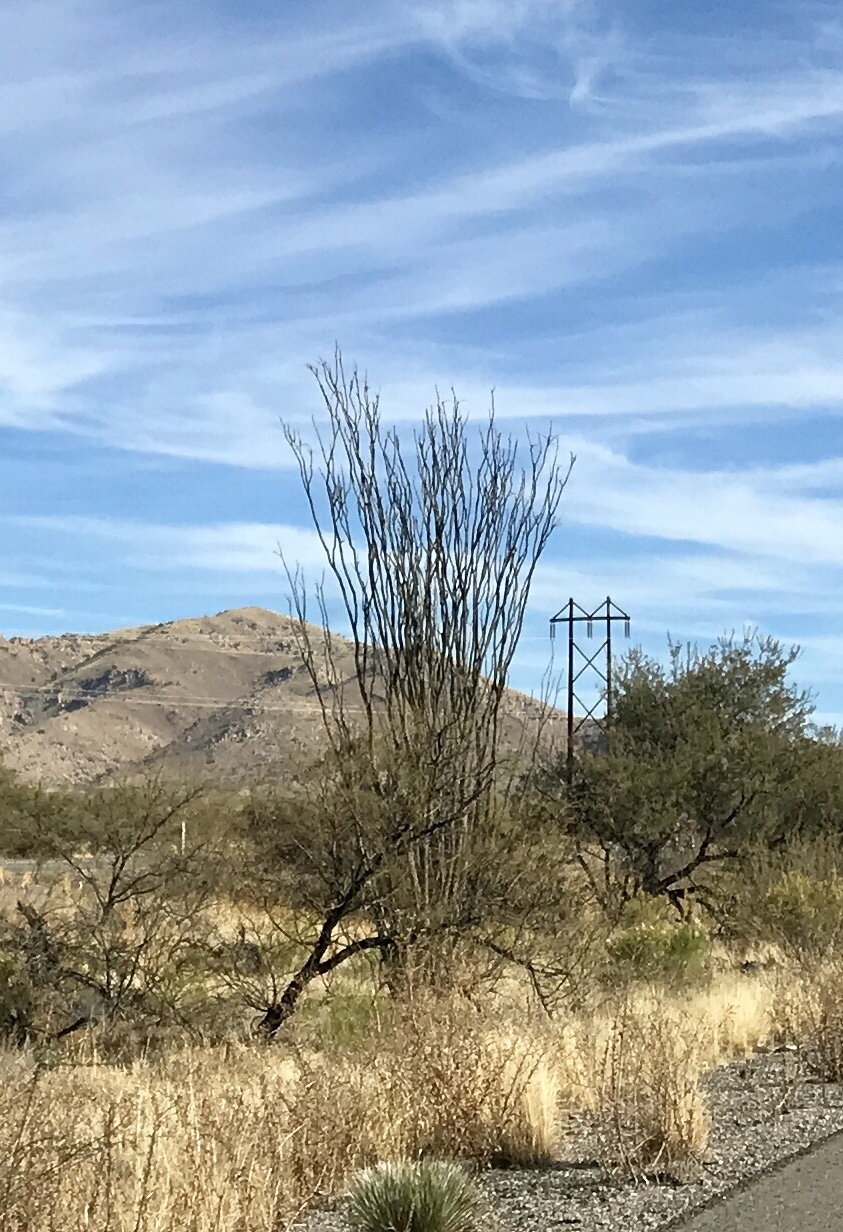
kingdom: Plantae
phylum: Tracheophyta
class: Magnoliopsida
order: Ericales
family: Fouquieriaceae
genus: Fouquieria
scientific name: Fouquieria splendens
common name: Vine-cactus
